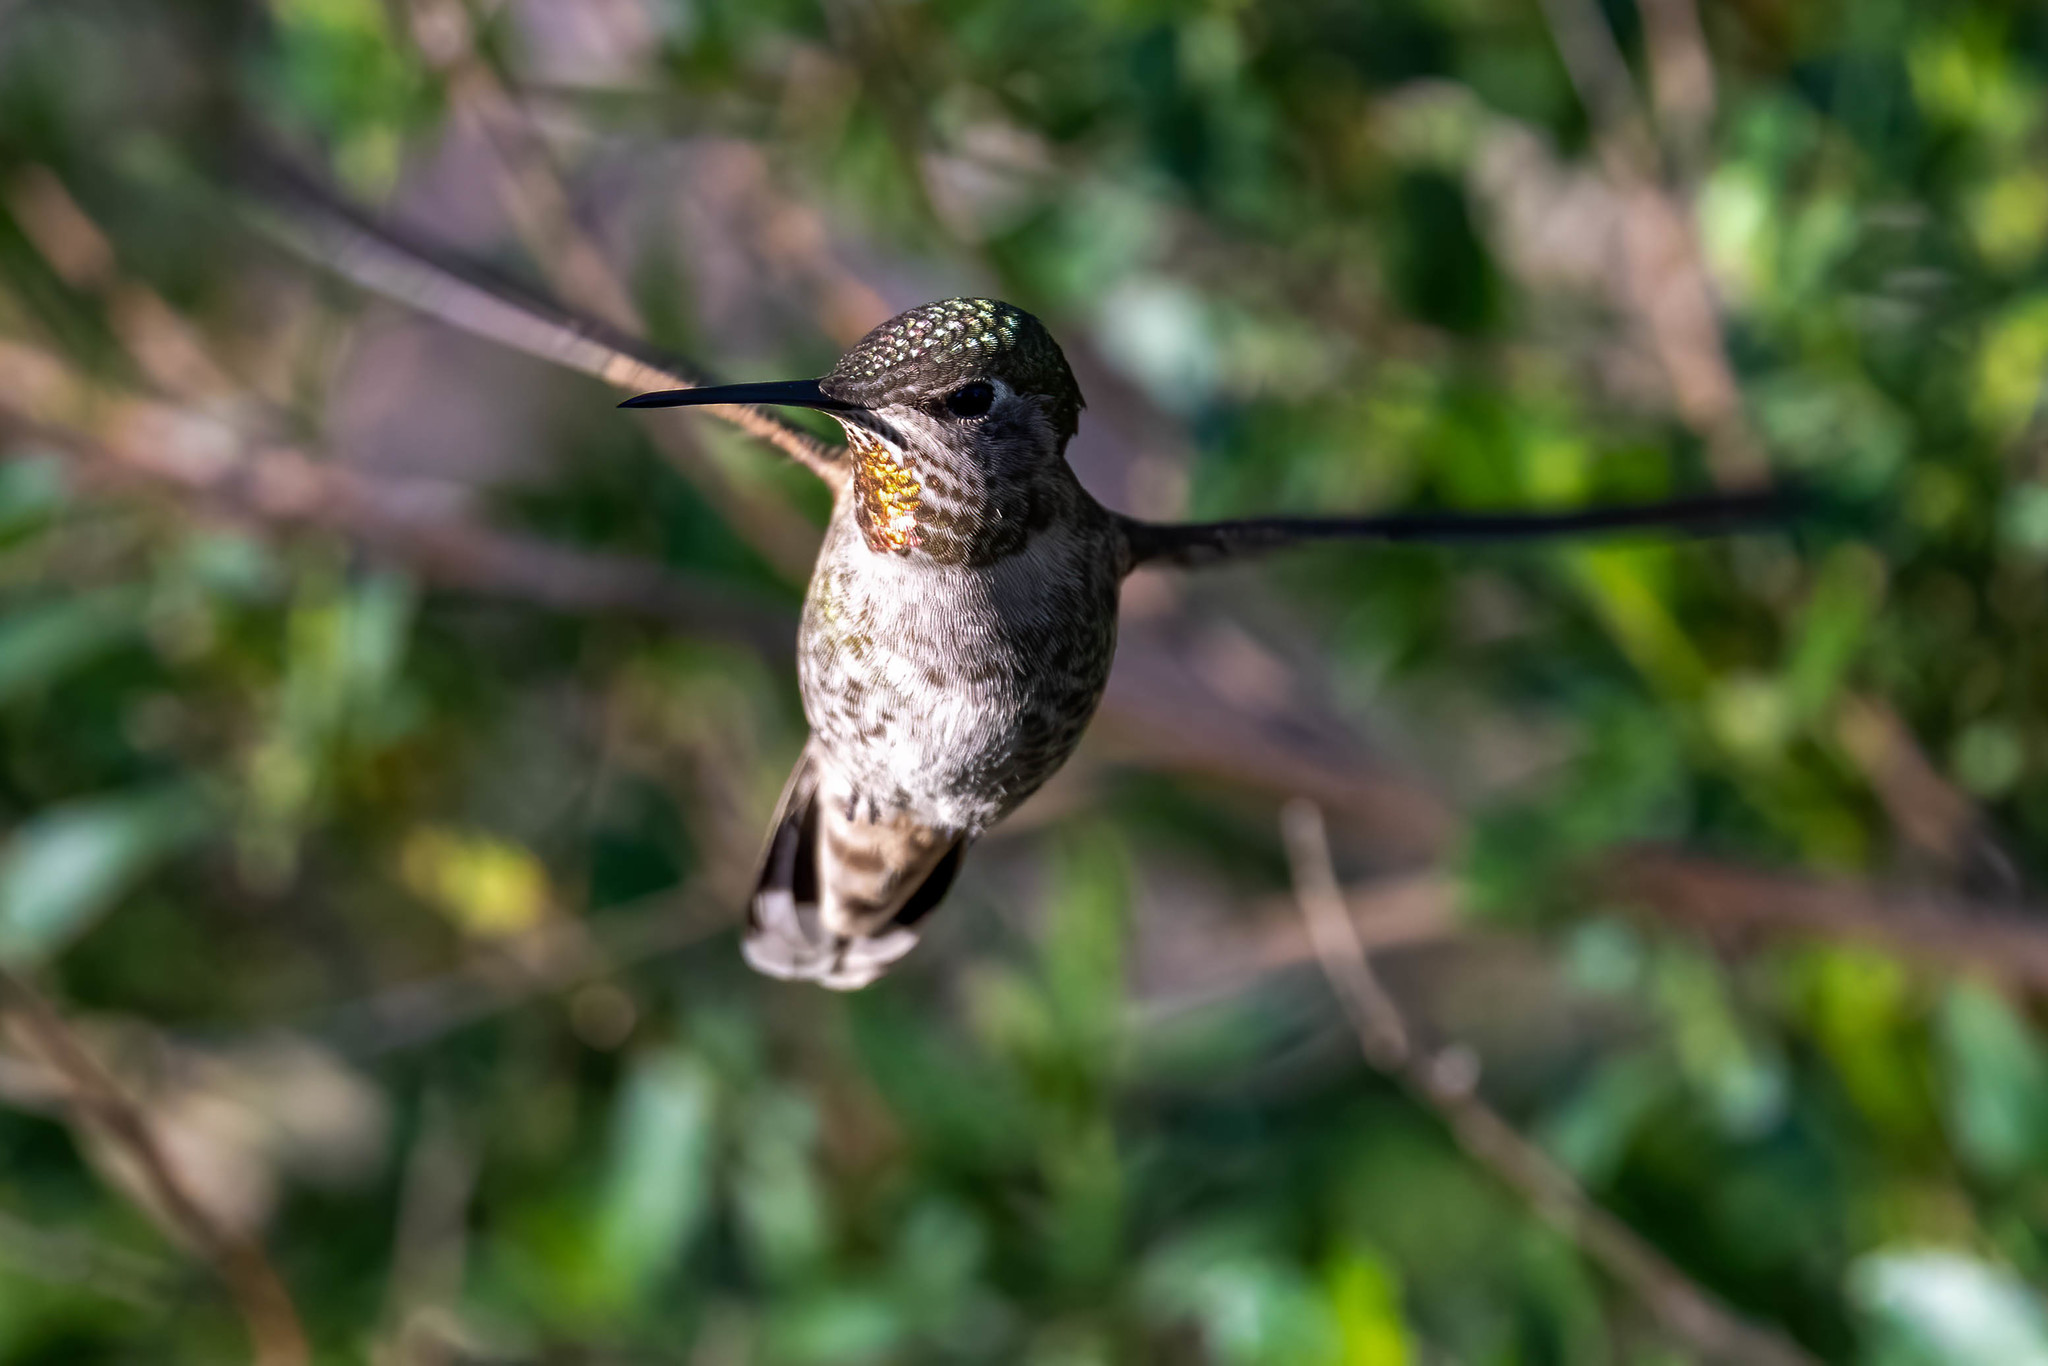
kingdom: Animalia
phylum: Chordata
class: Aves
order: Apodiformes
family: Trochilidae
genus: Calypte
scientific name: Calypte anna
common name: Anna's hummingbird
